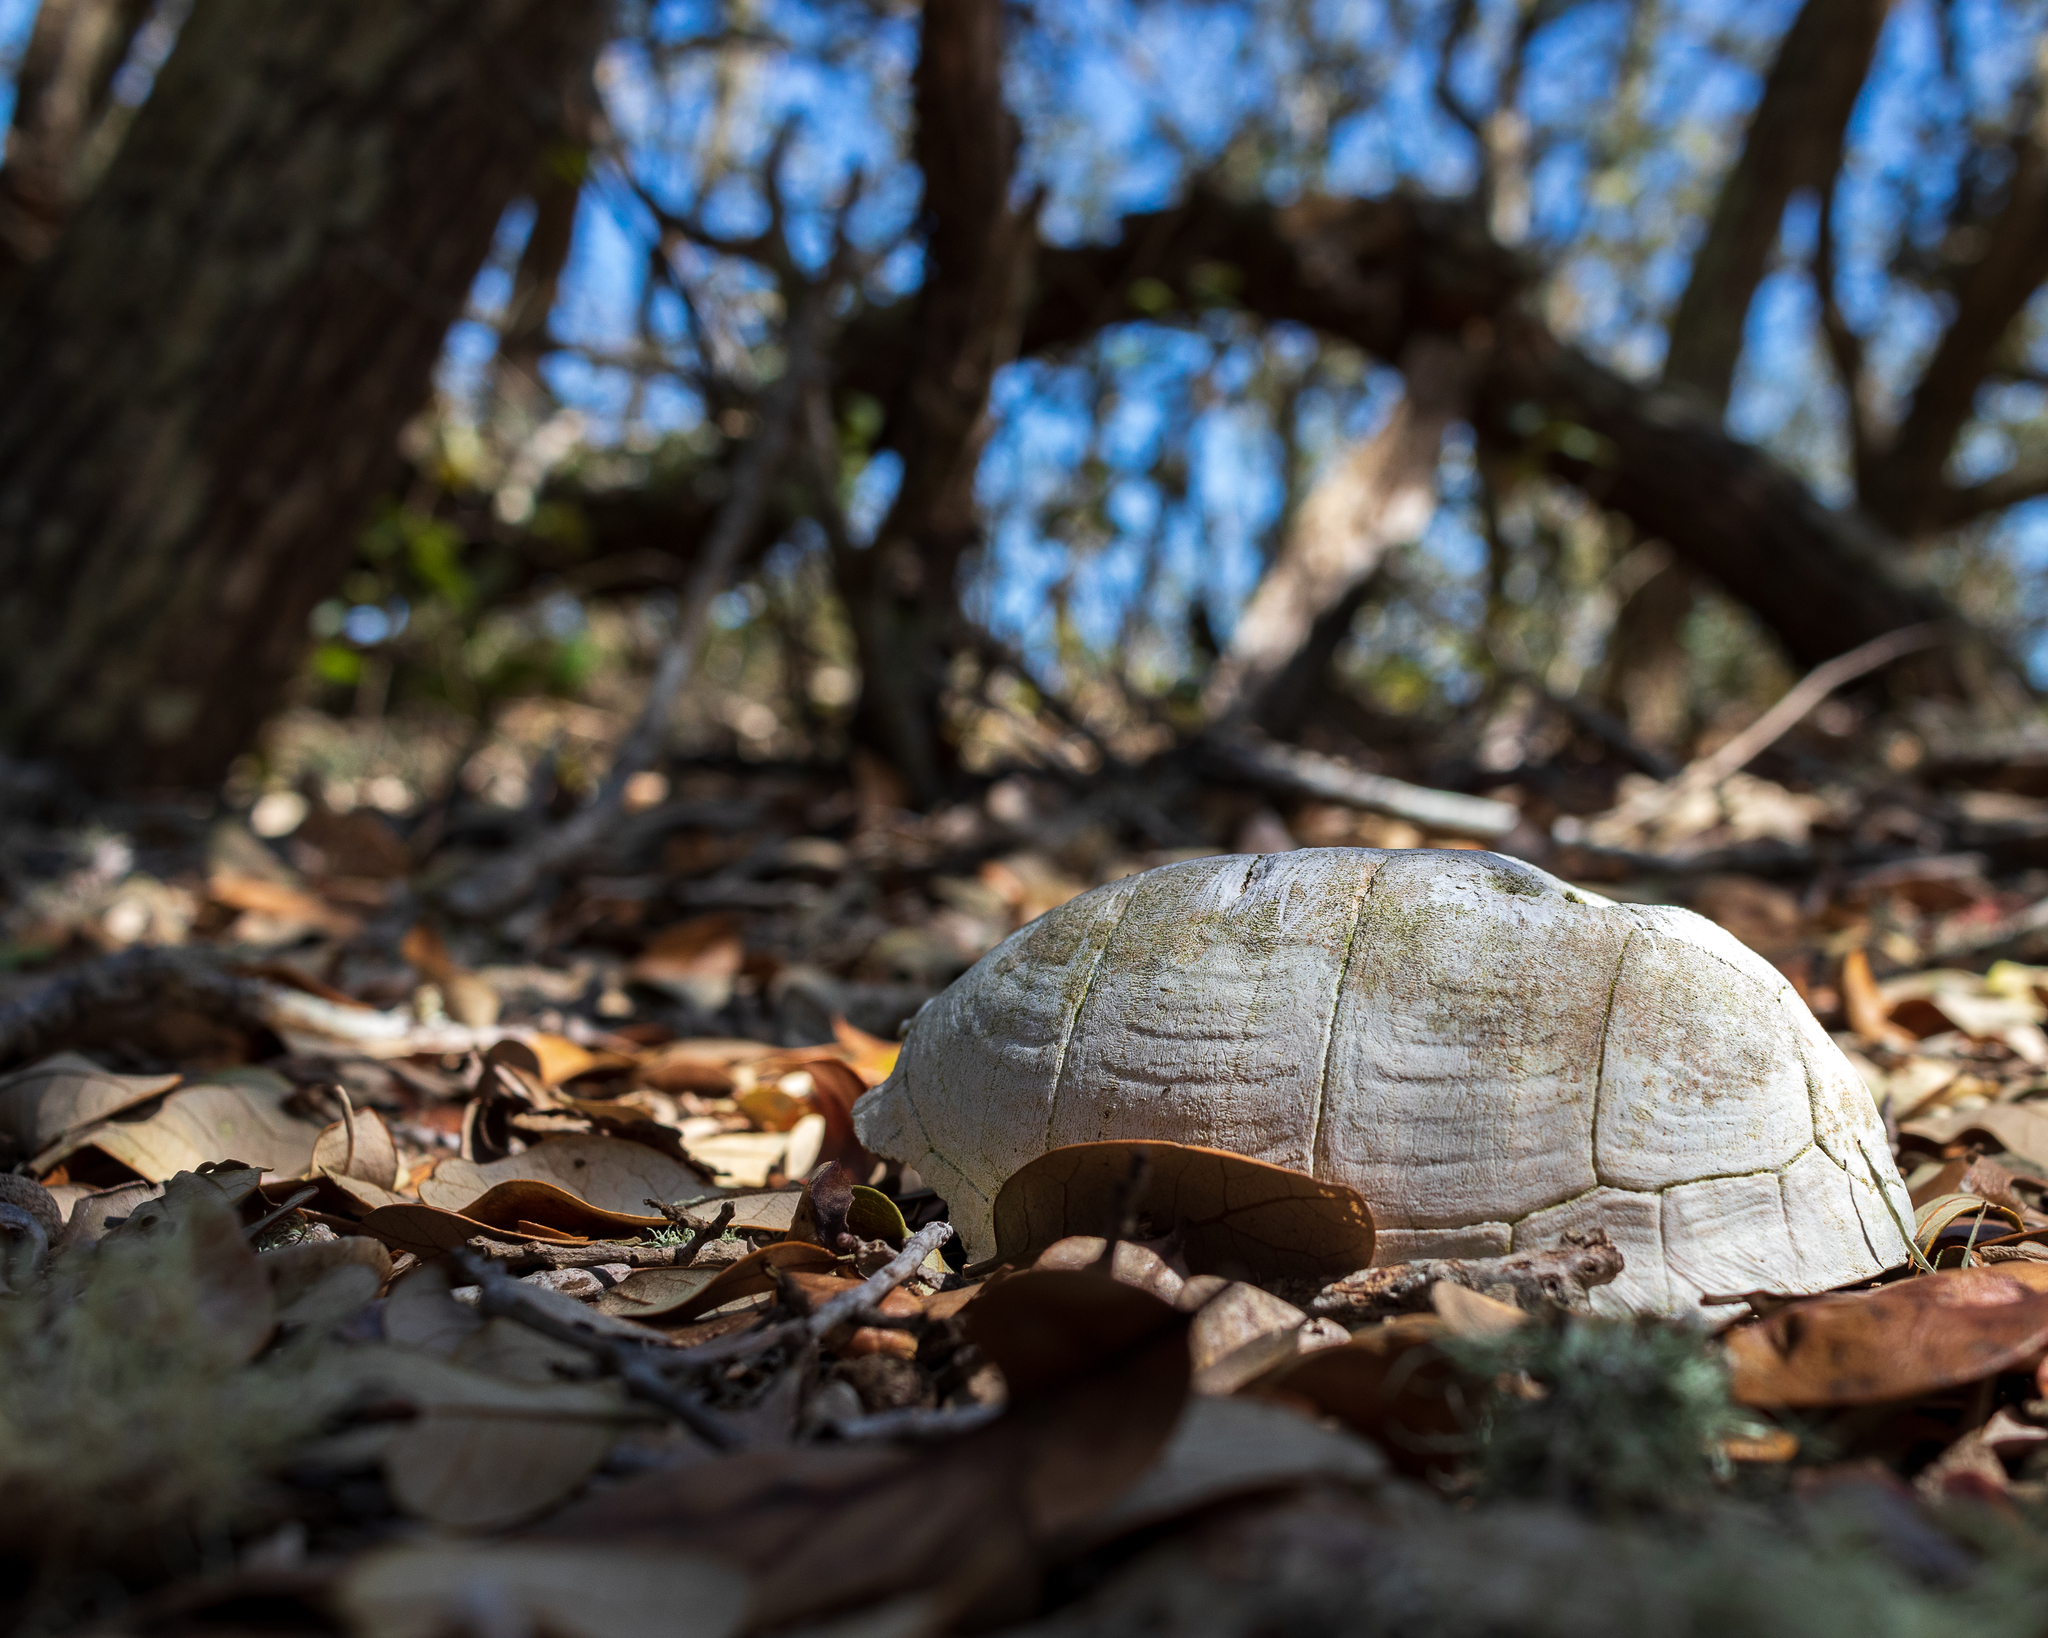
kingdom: Animalia
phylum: Chordata
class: Testudines
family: Emydidae
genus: Terrapene
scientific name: Terrapene carolina
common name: Common box turtle
